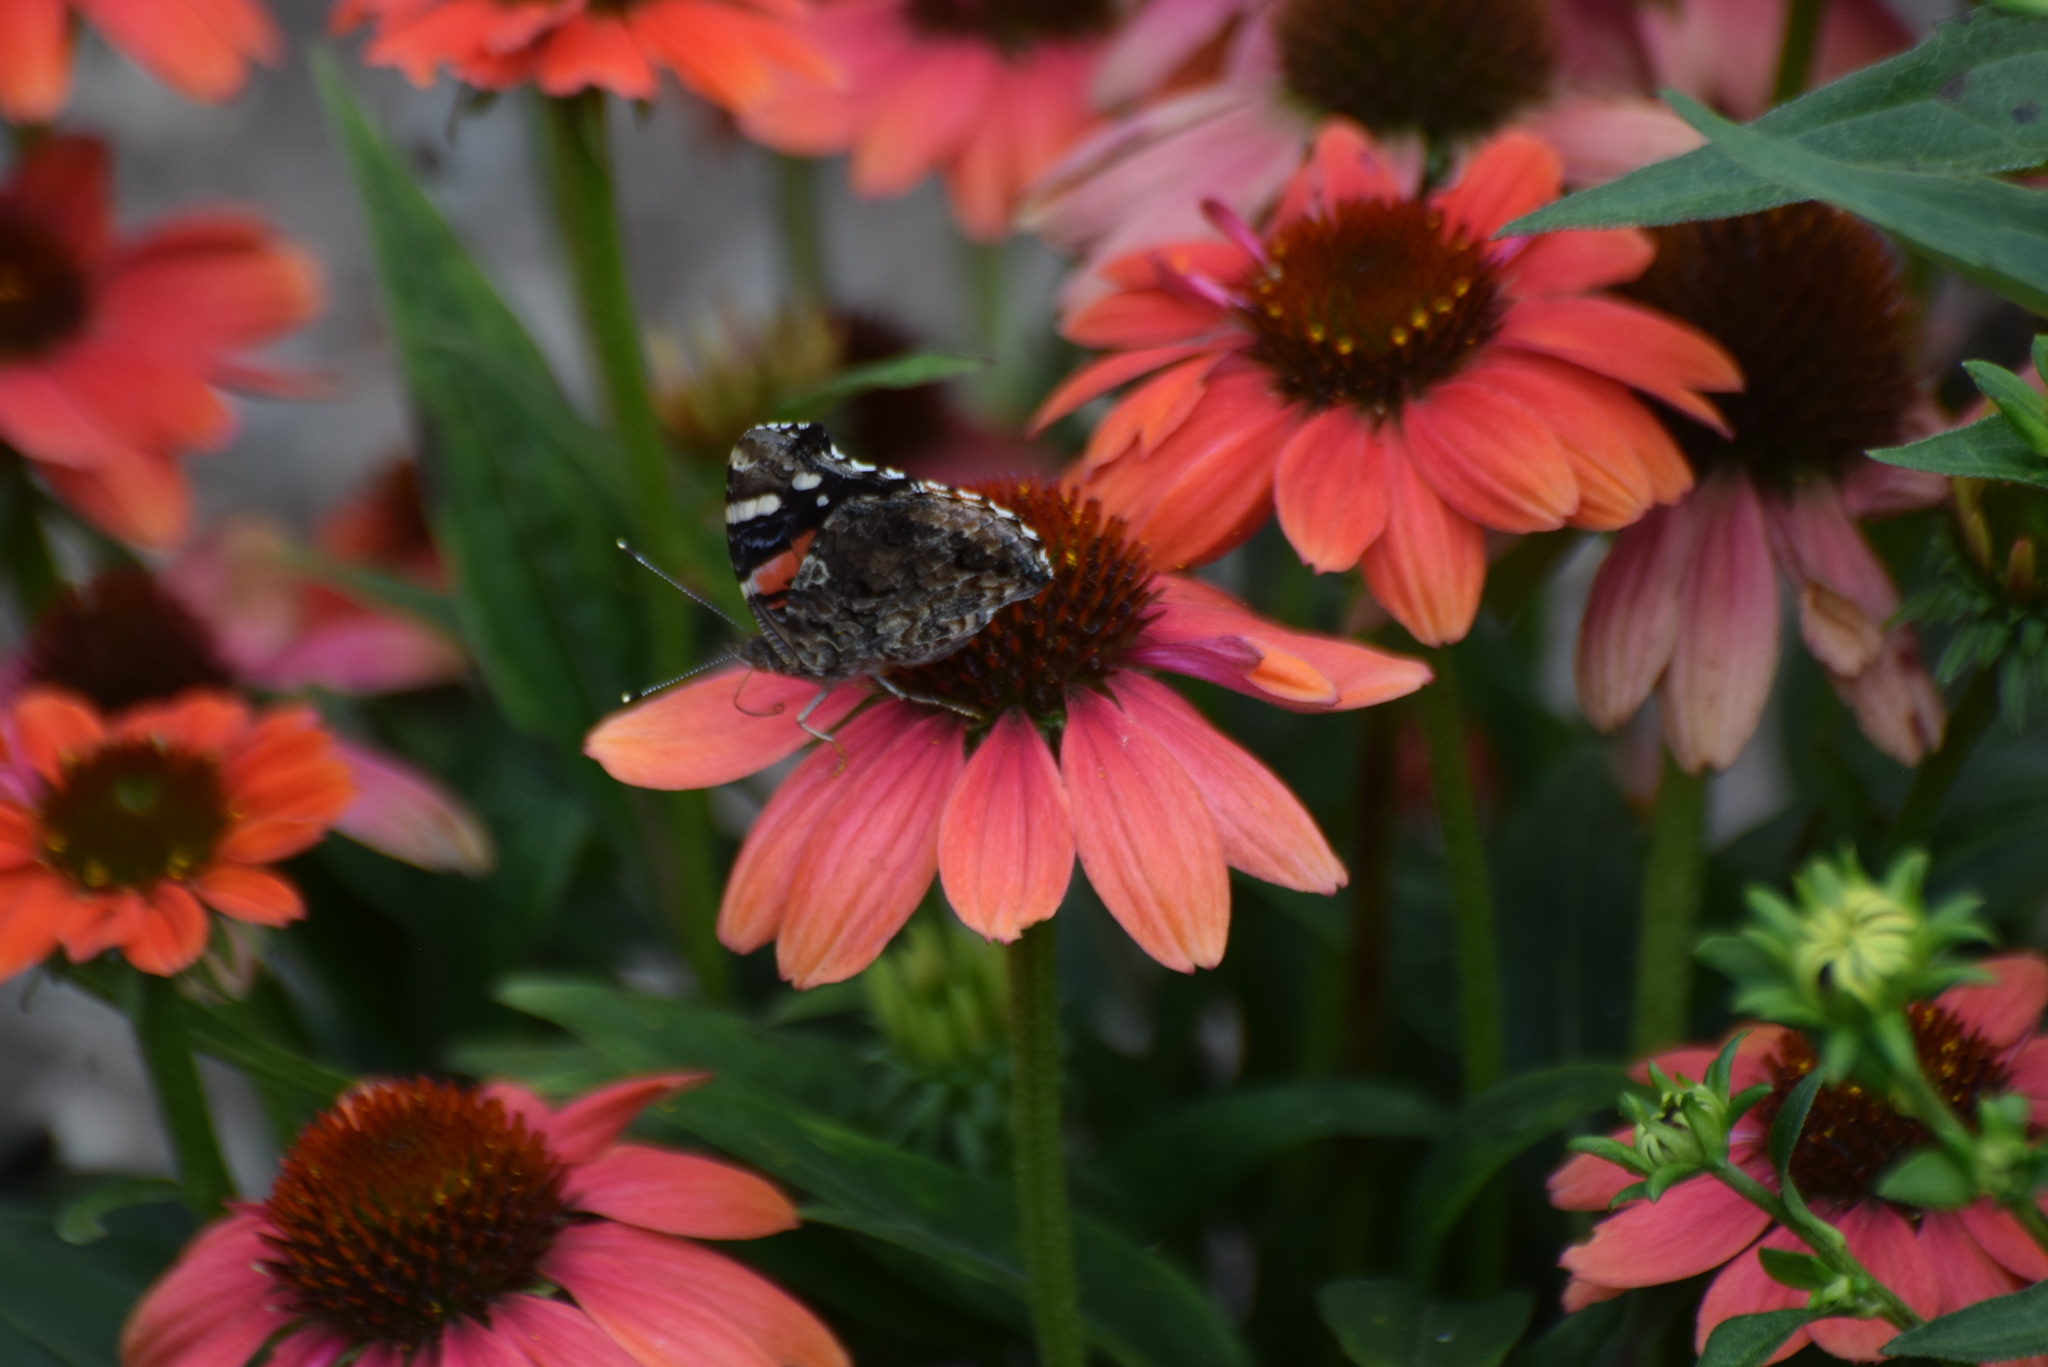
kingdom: Animalia
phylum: Arthropoda
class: Insecta
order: Lepidoptera
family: Nymphalidae
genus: Vanessa
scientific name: Vanessa atalanta
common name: Red admiral
